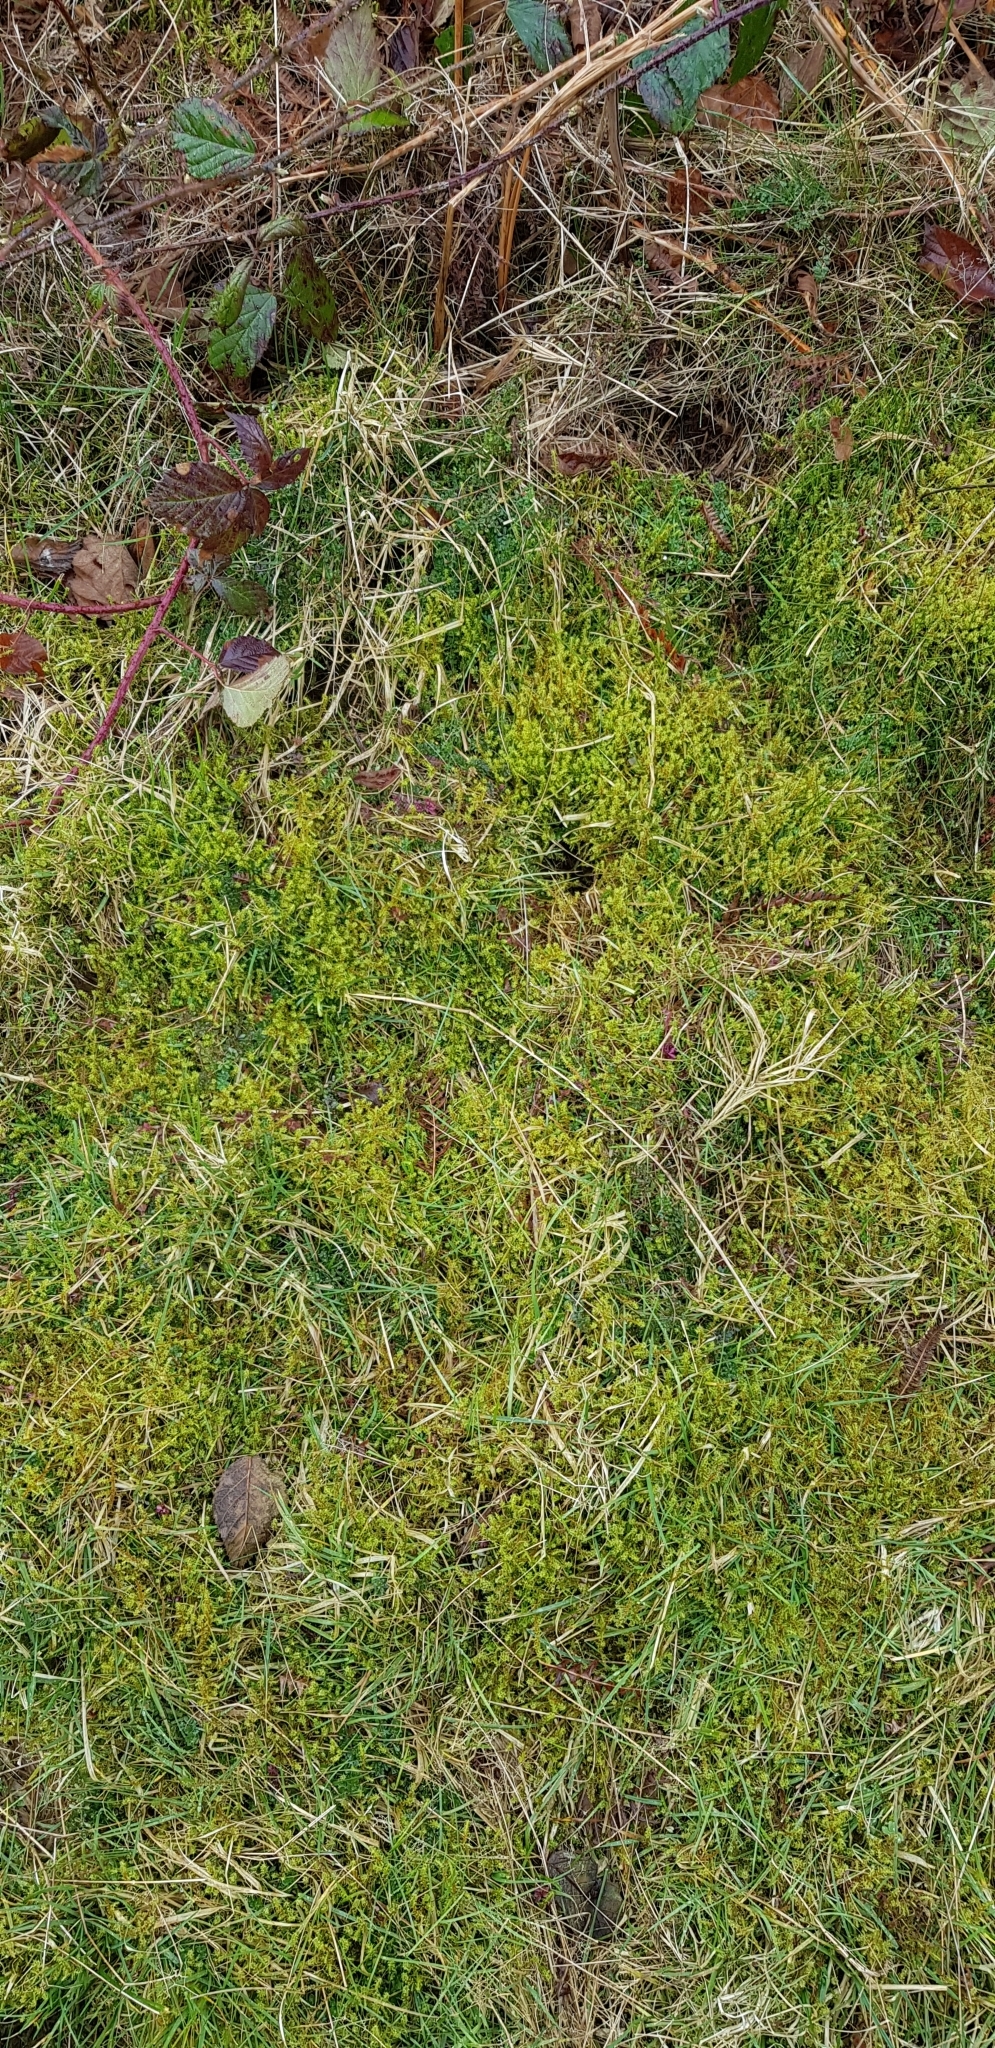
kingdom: Plantae
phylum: Bryophyta
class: Bryopsida
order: Hypnales
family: Hylocomiaceae
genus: Rhytidiadelphus
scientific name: Rhytidiadelphus squarrosus
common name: Springy turf-moss
